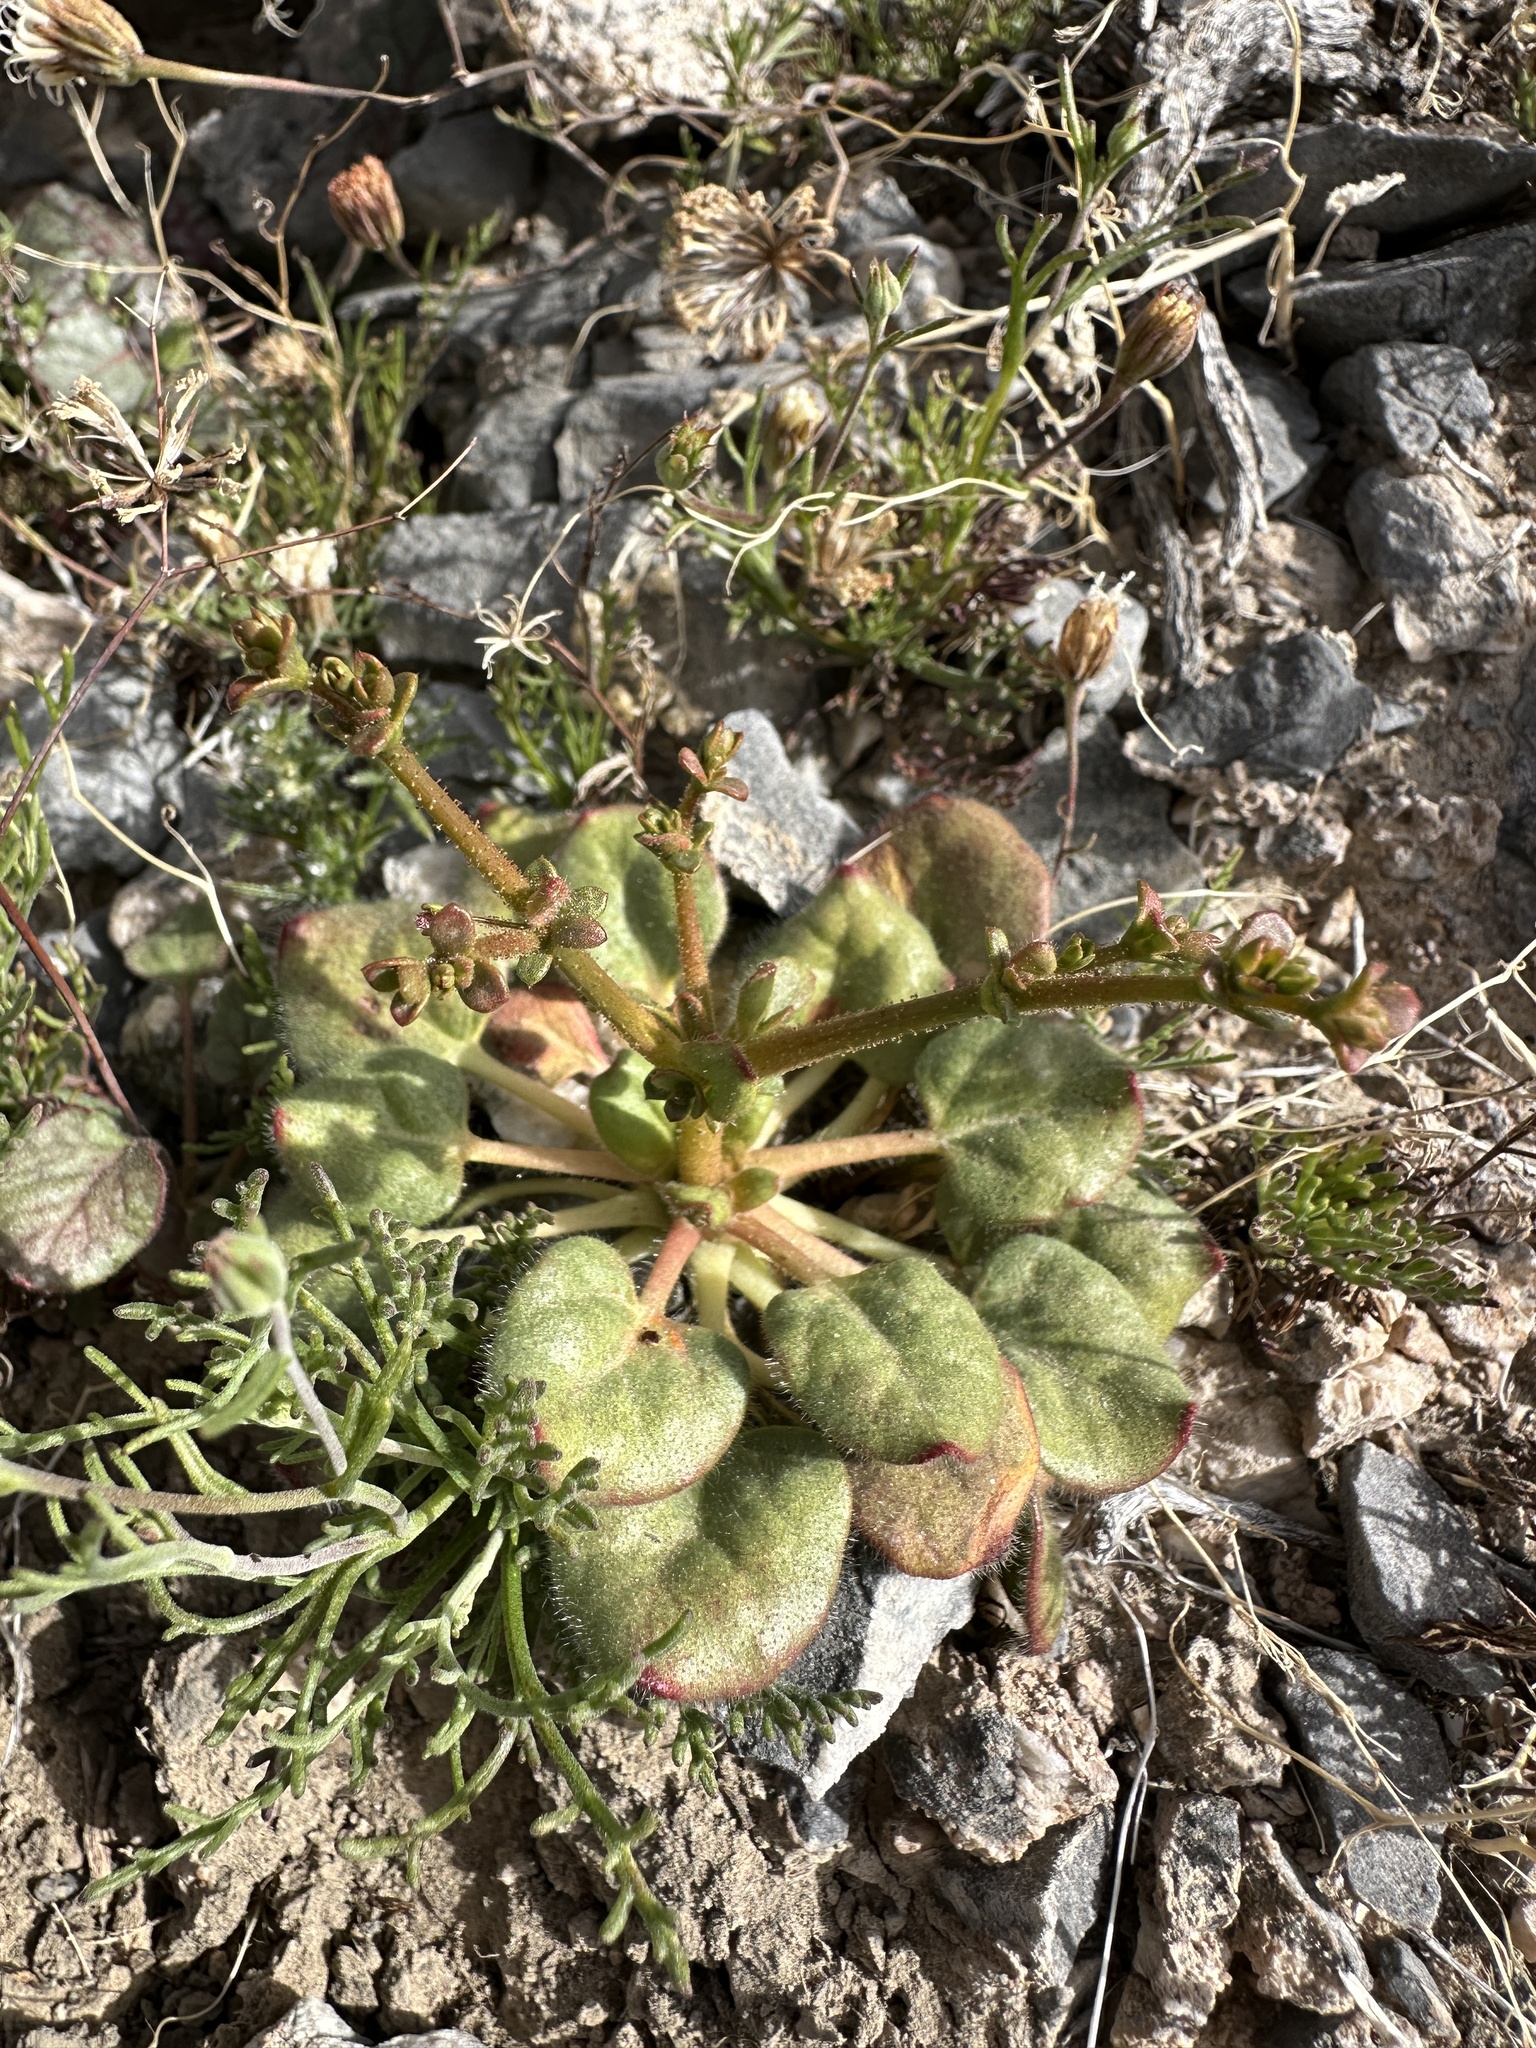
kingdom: Plantae
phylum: Tracheophyta
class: Magnoliopsida
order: Caryophyllales
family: Polygonaceae
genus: Eriogonum
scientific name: Eriogonum glandulosum
